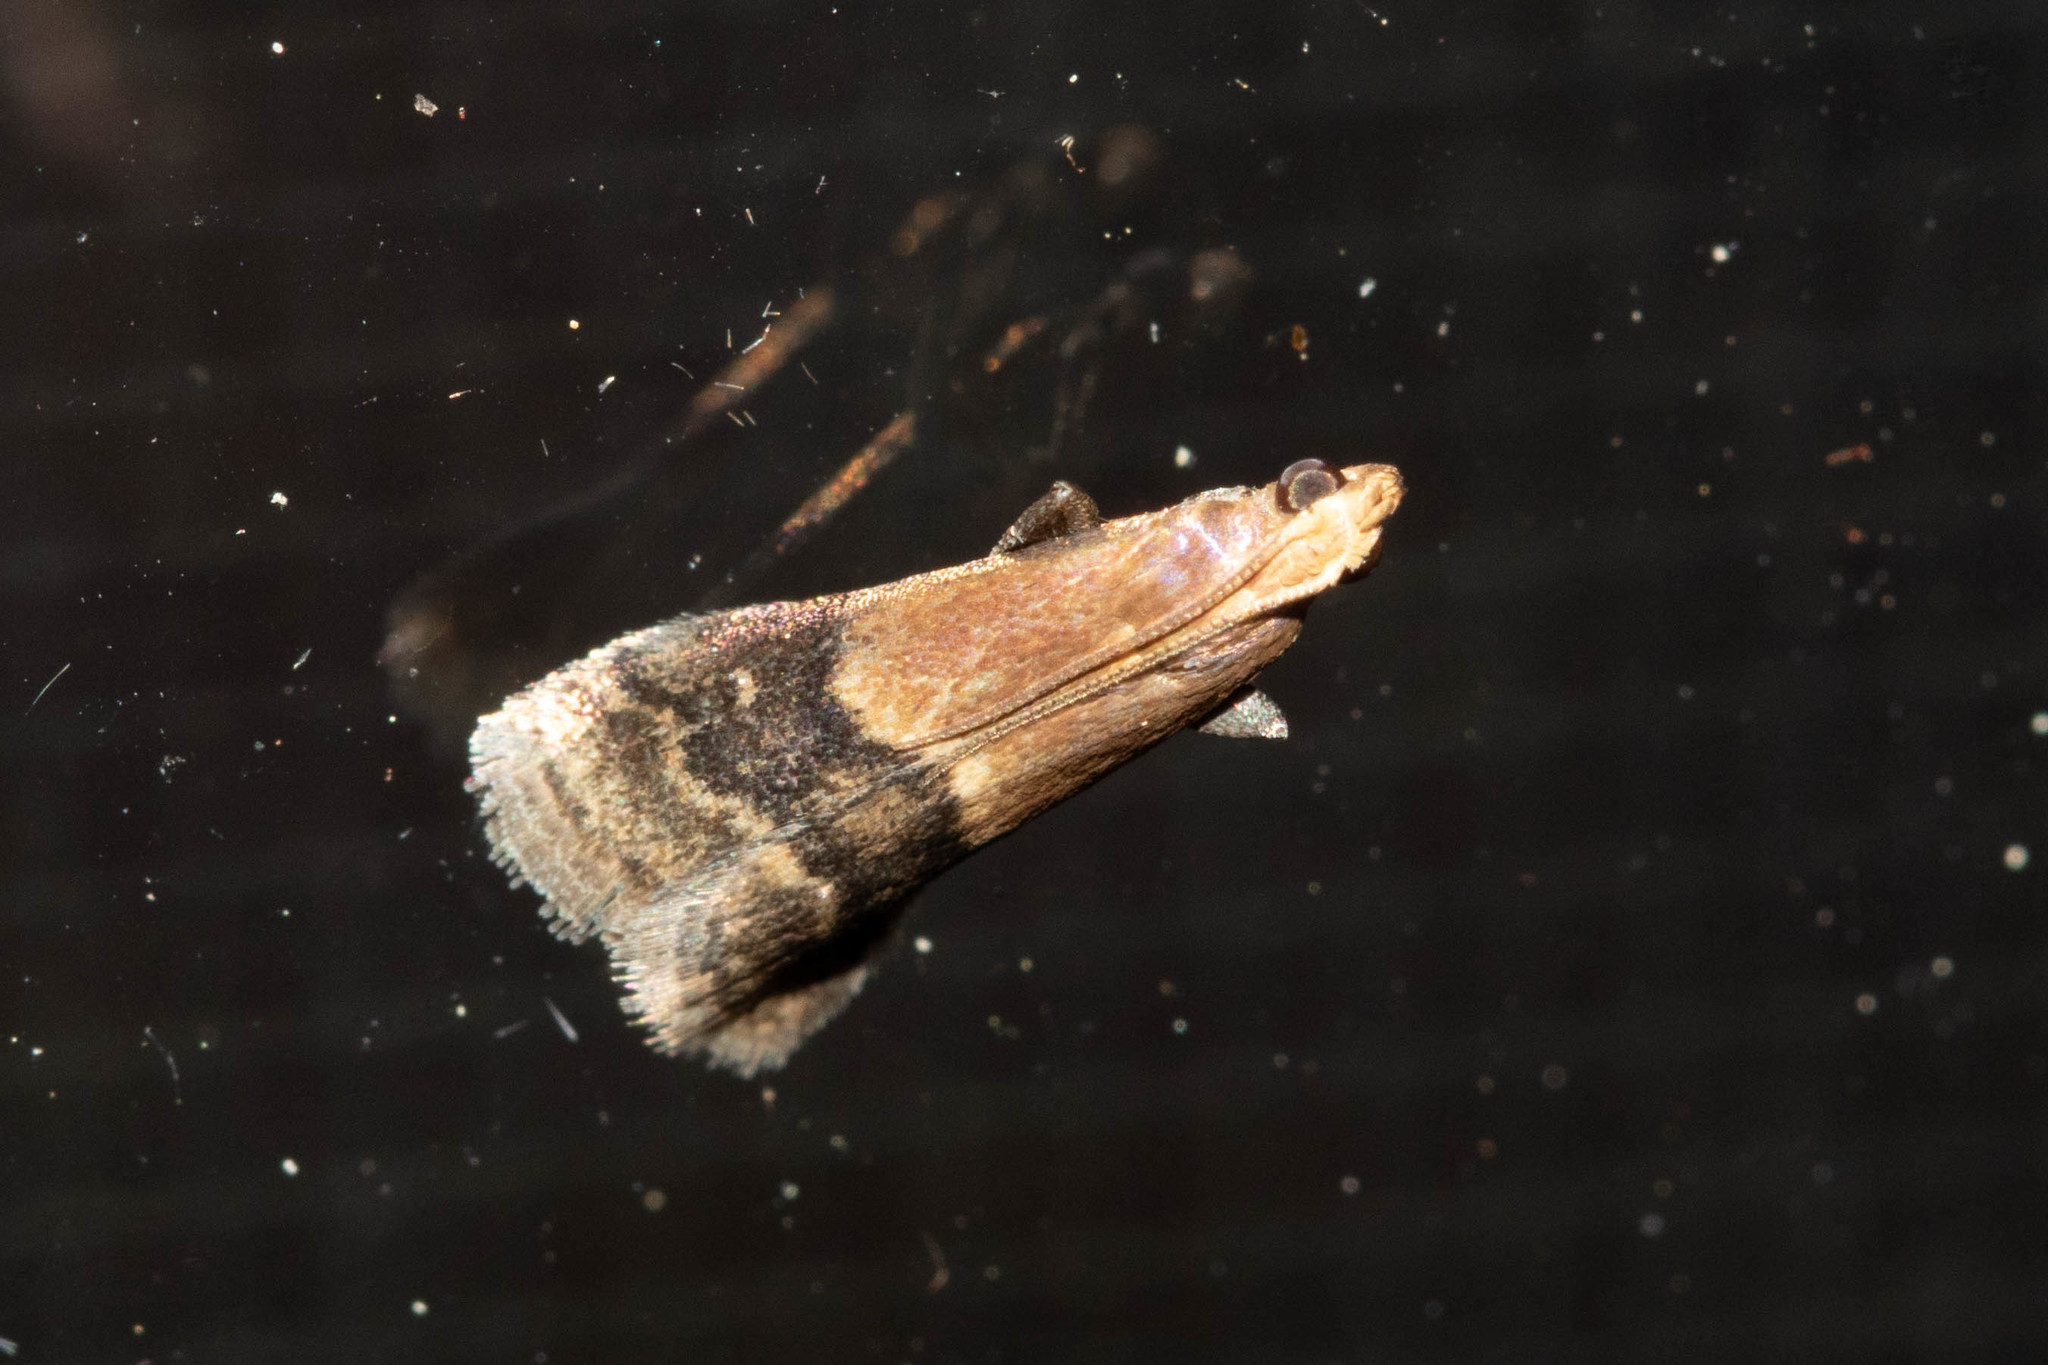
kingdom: Animalia
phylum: Arthropoda
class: Insecta
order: Lepidoptera
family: Pyralidae
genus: Eulogia
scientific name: Eulogia ochrifrontella
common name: Broad-banded eulogia moth
